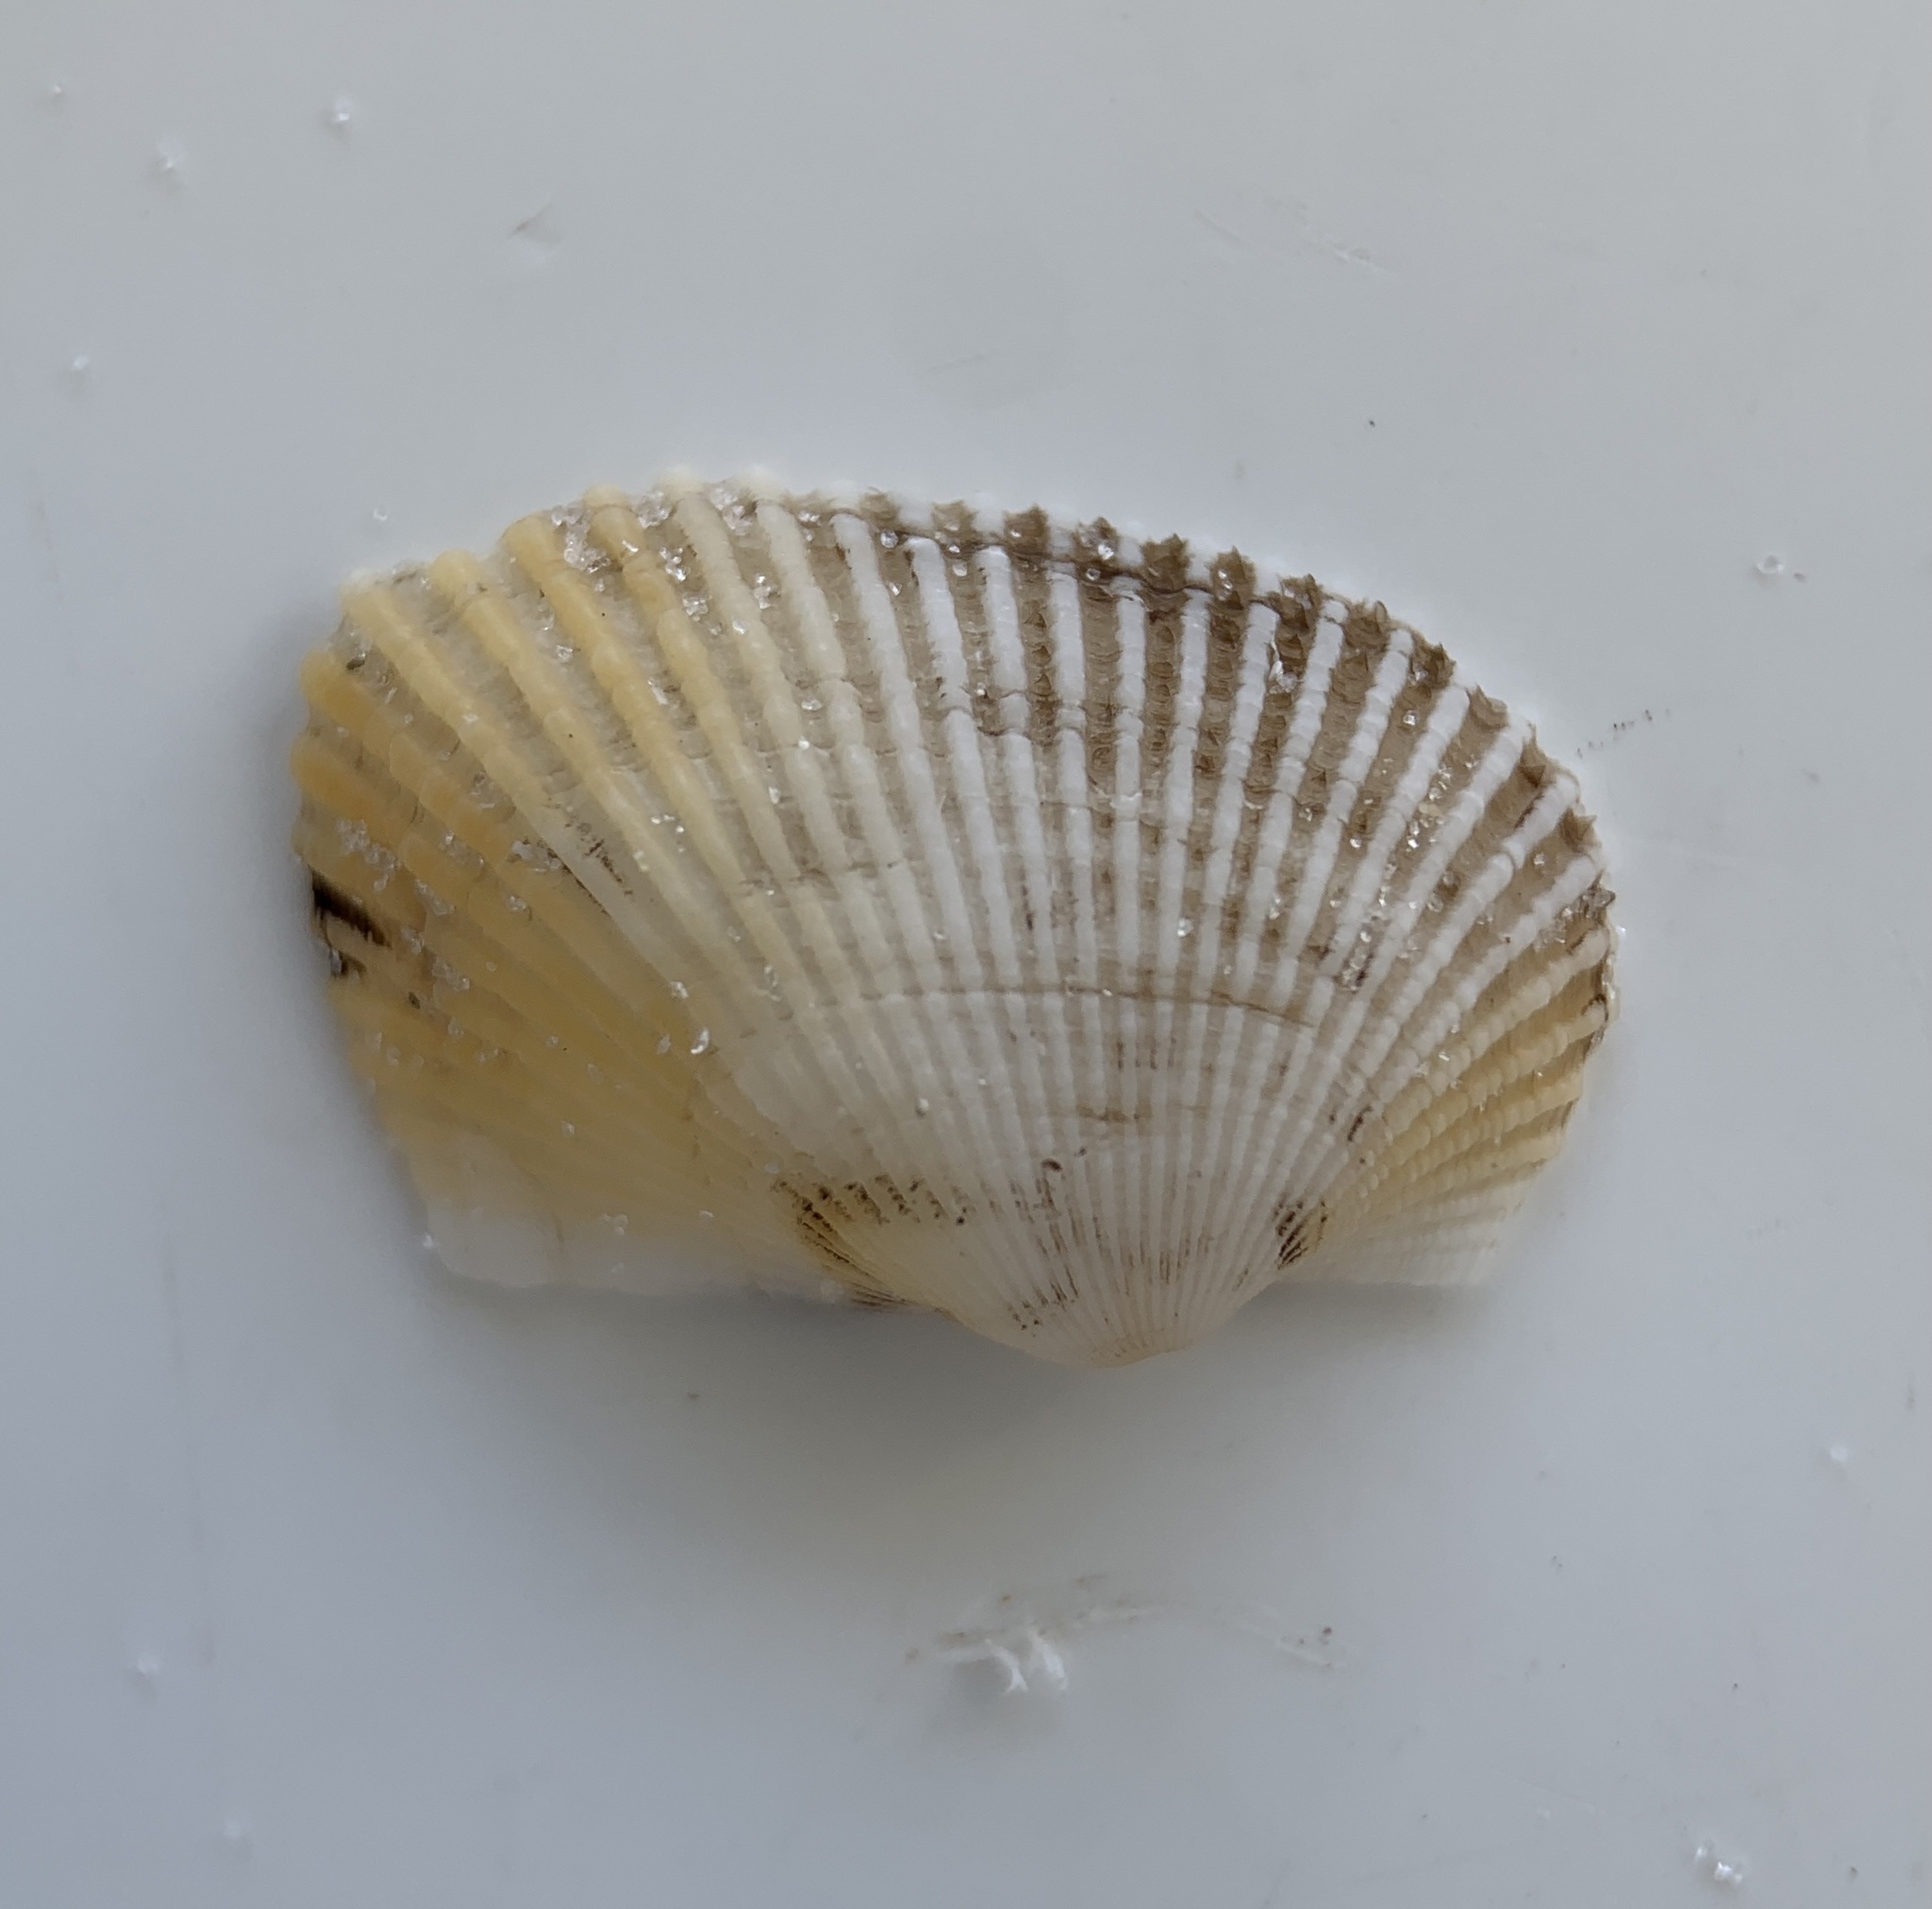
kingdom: Animalia
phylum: Mollusca
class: Bivalvia
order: Arcida
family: Arcidae
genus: Anadara
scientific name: Anadara transversa
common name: Transverse ark
